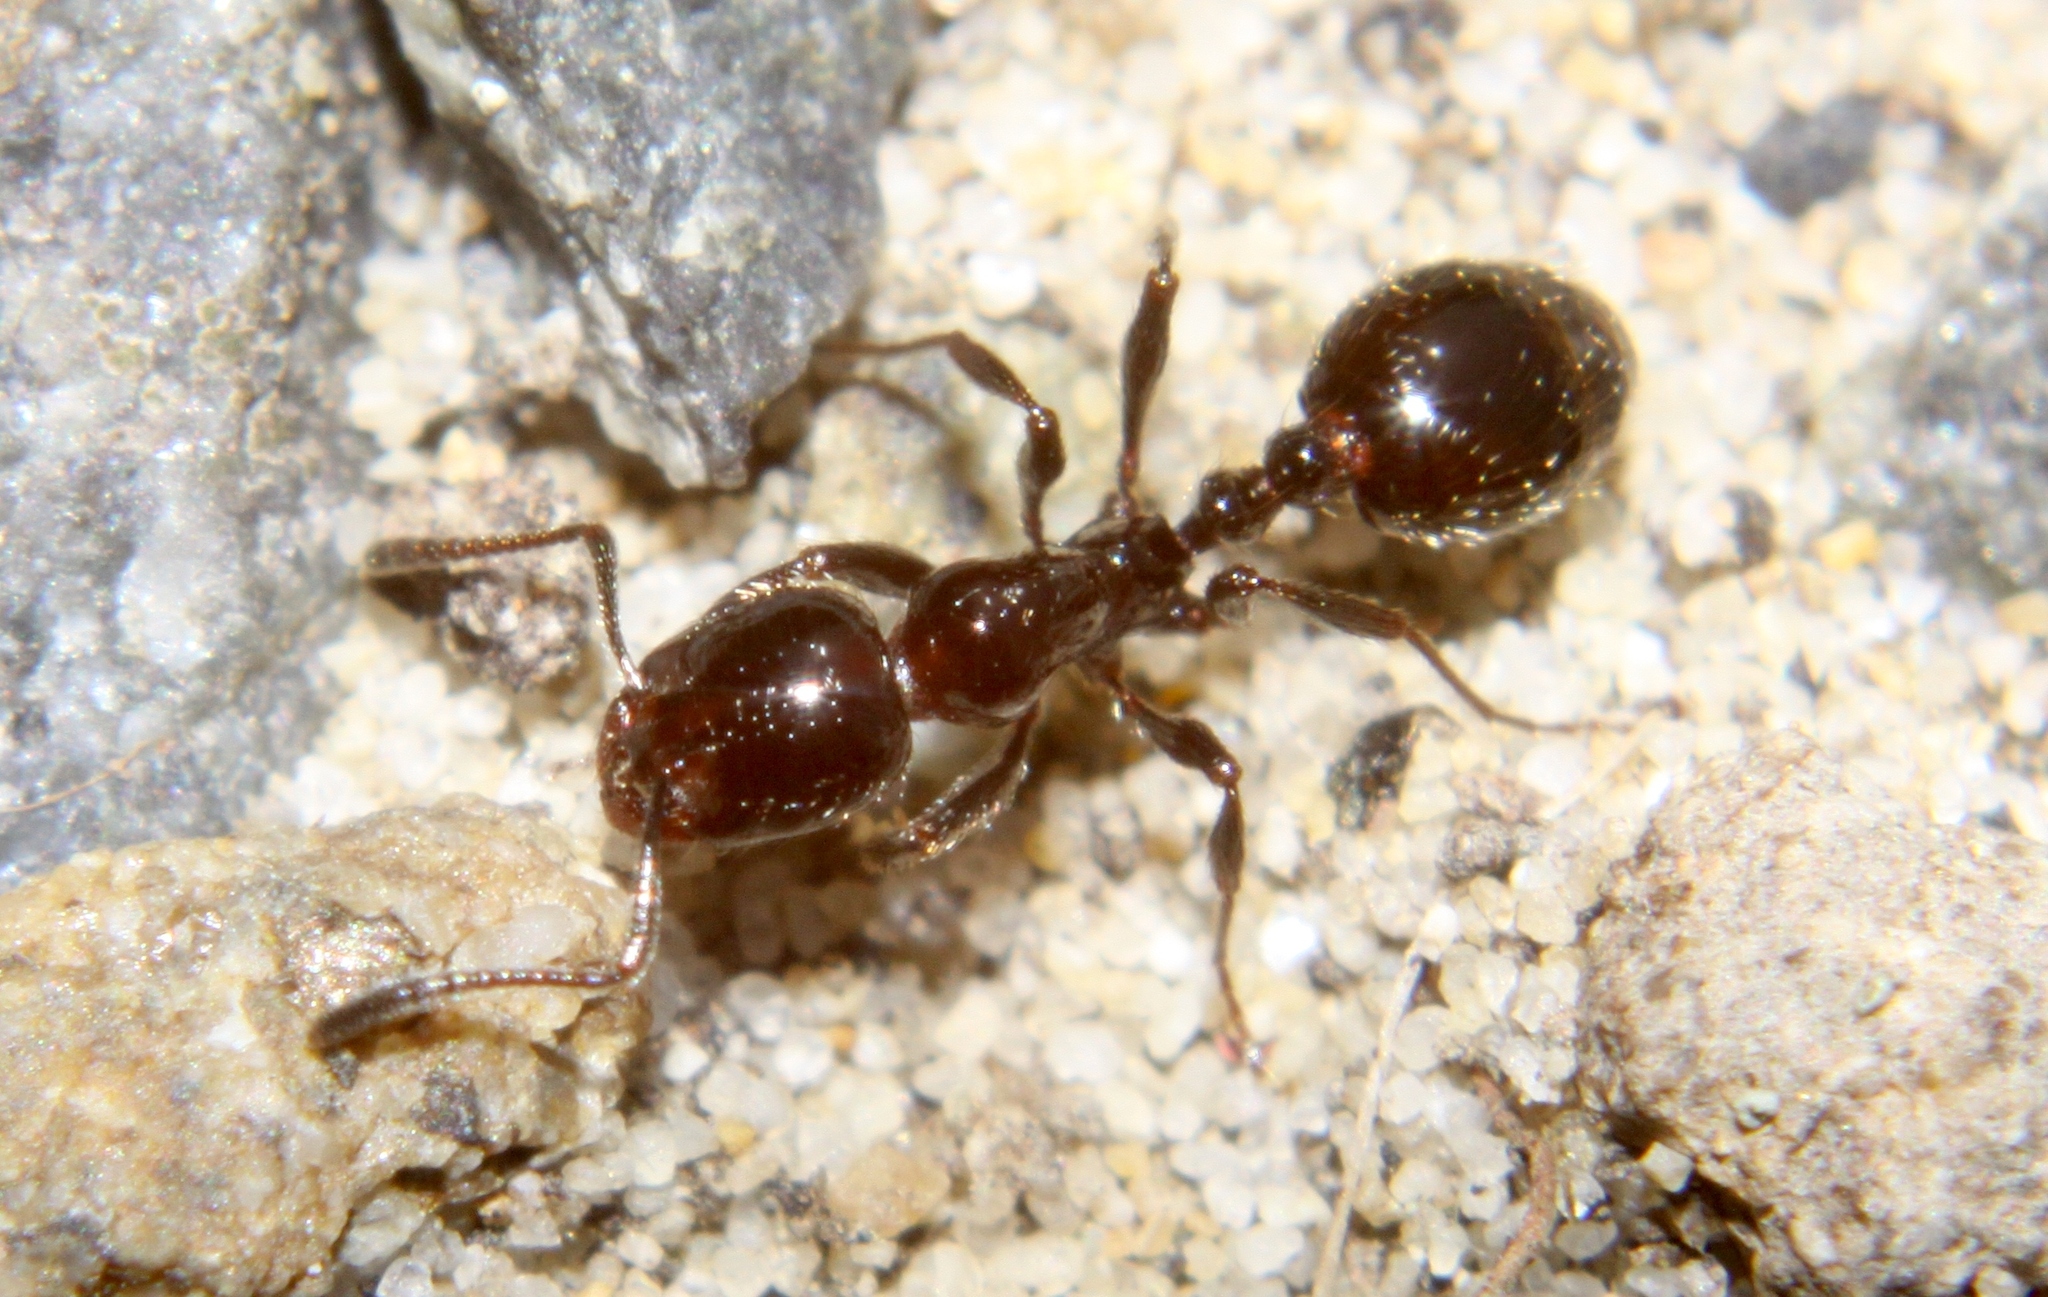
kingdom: Animalia
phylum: Arthropoda
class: Insecta
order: Hymenoptera
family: Formicidae
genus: Monomorium
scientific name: Monomorium antarcticum
